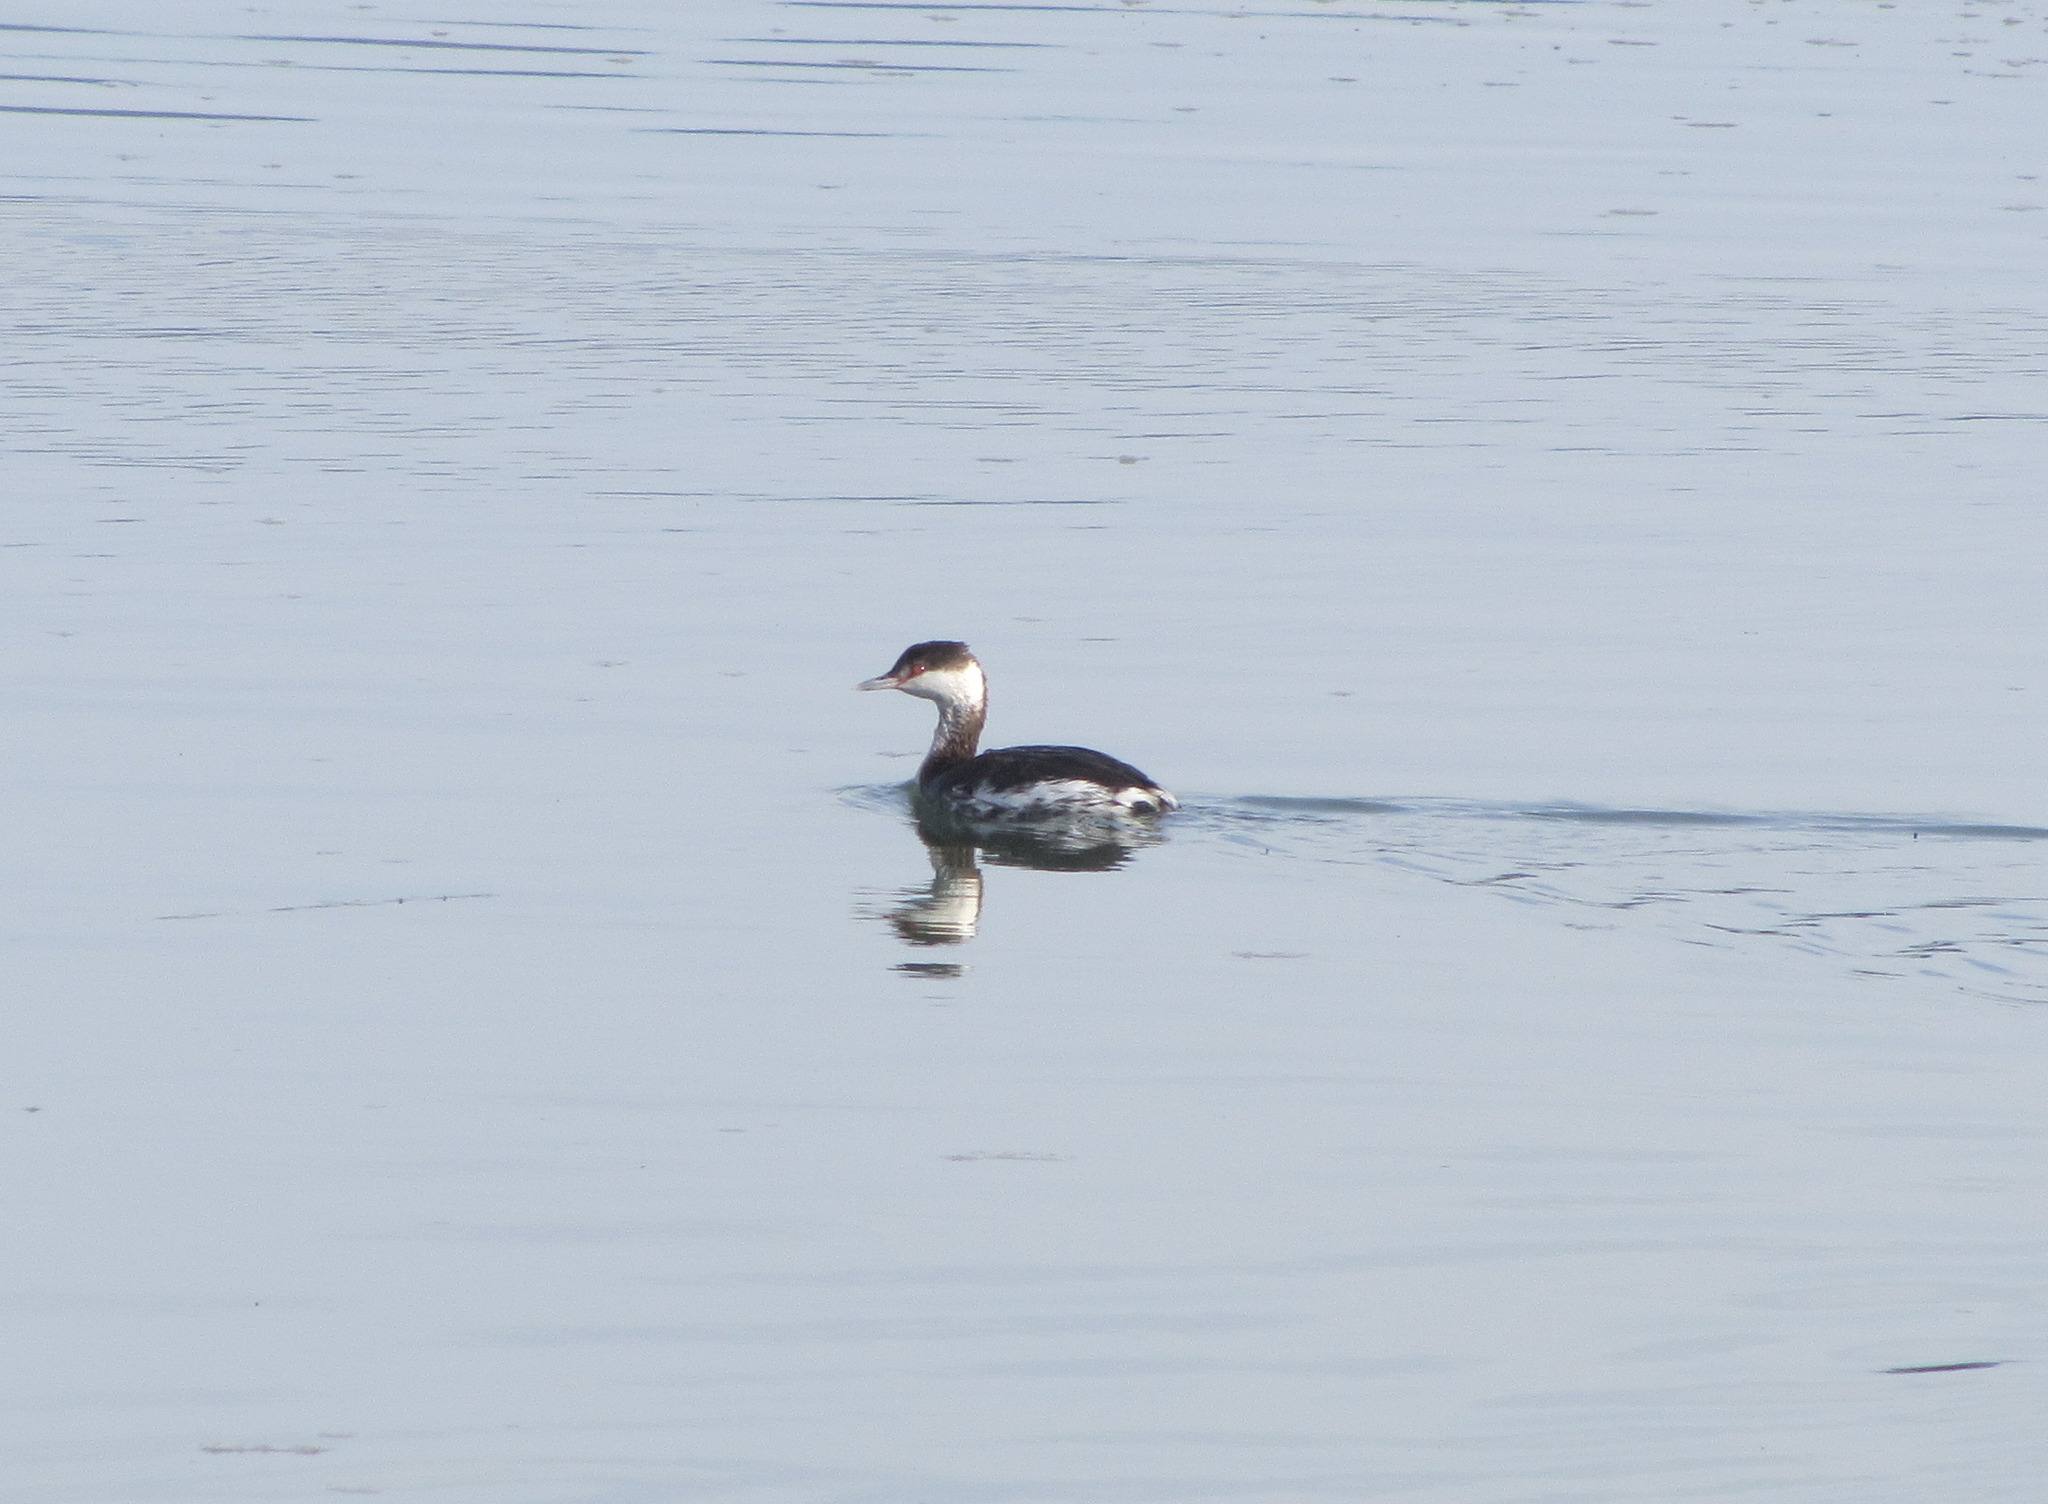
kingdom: Animalia
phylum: Chordata
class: Aves
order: Podicipediformes
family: Podicipedidae
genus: Podiceps
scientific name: Podiceps auritus
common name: Horned grebe
